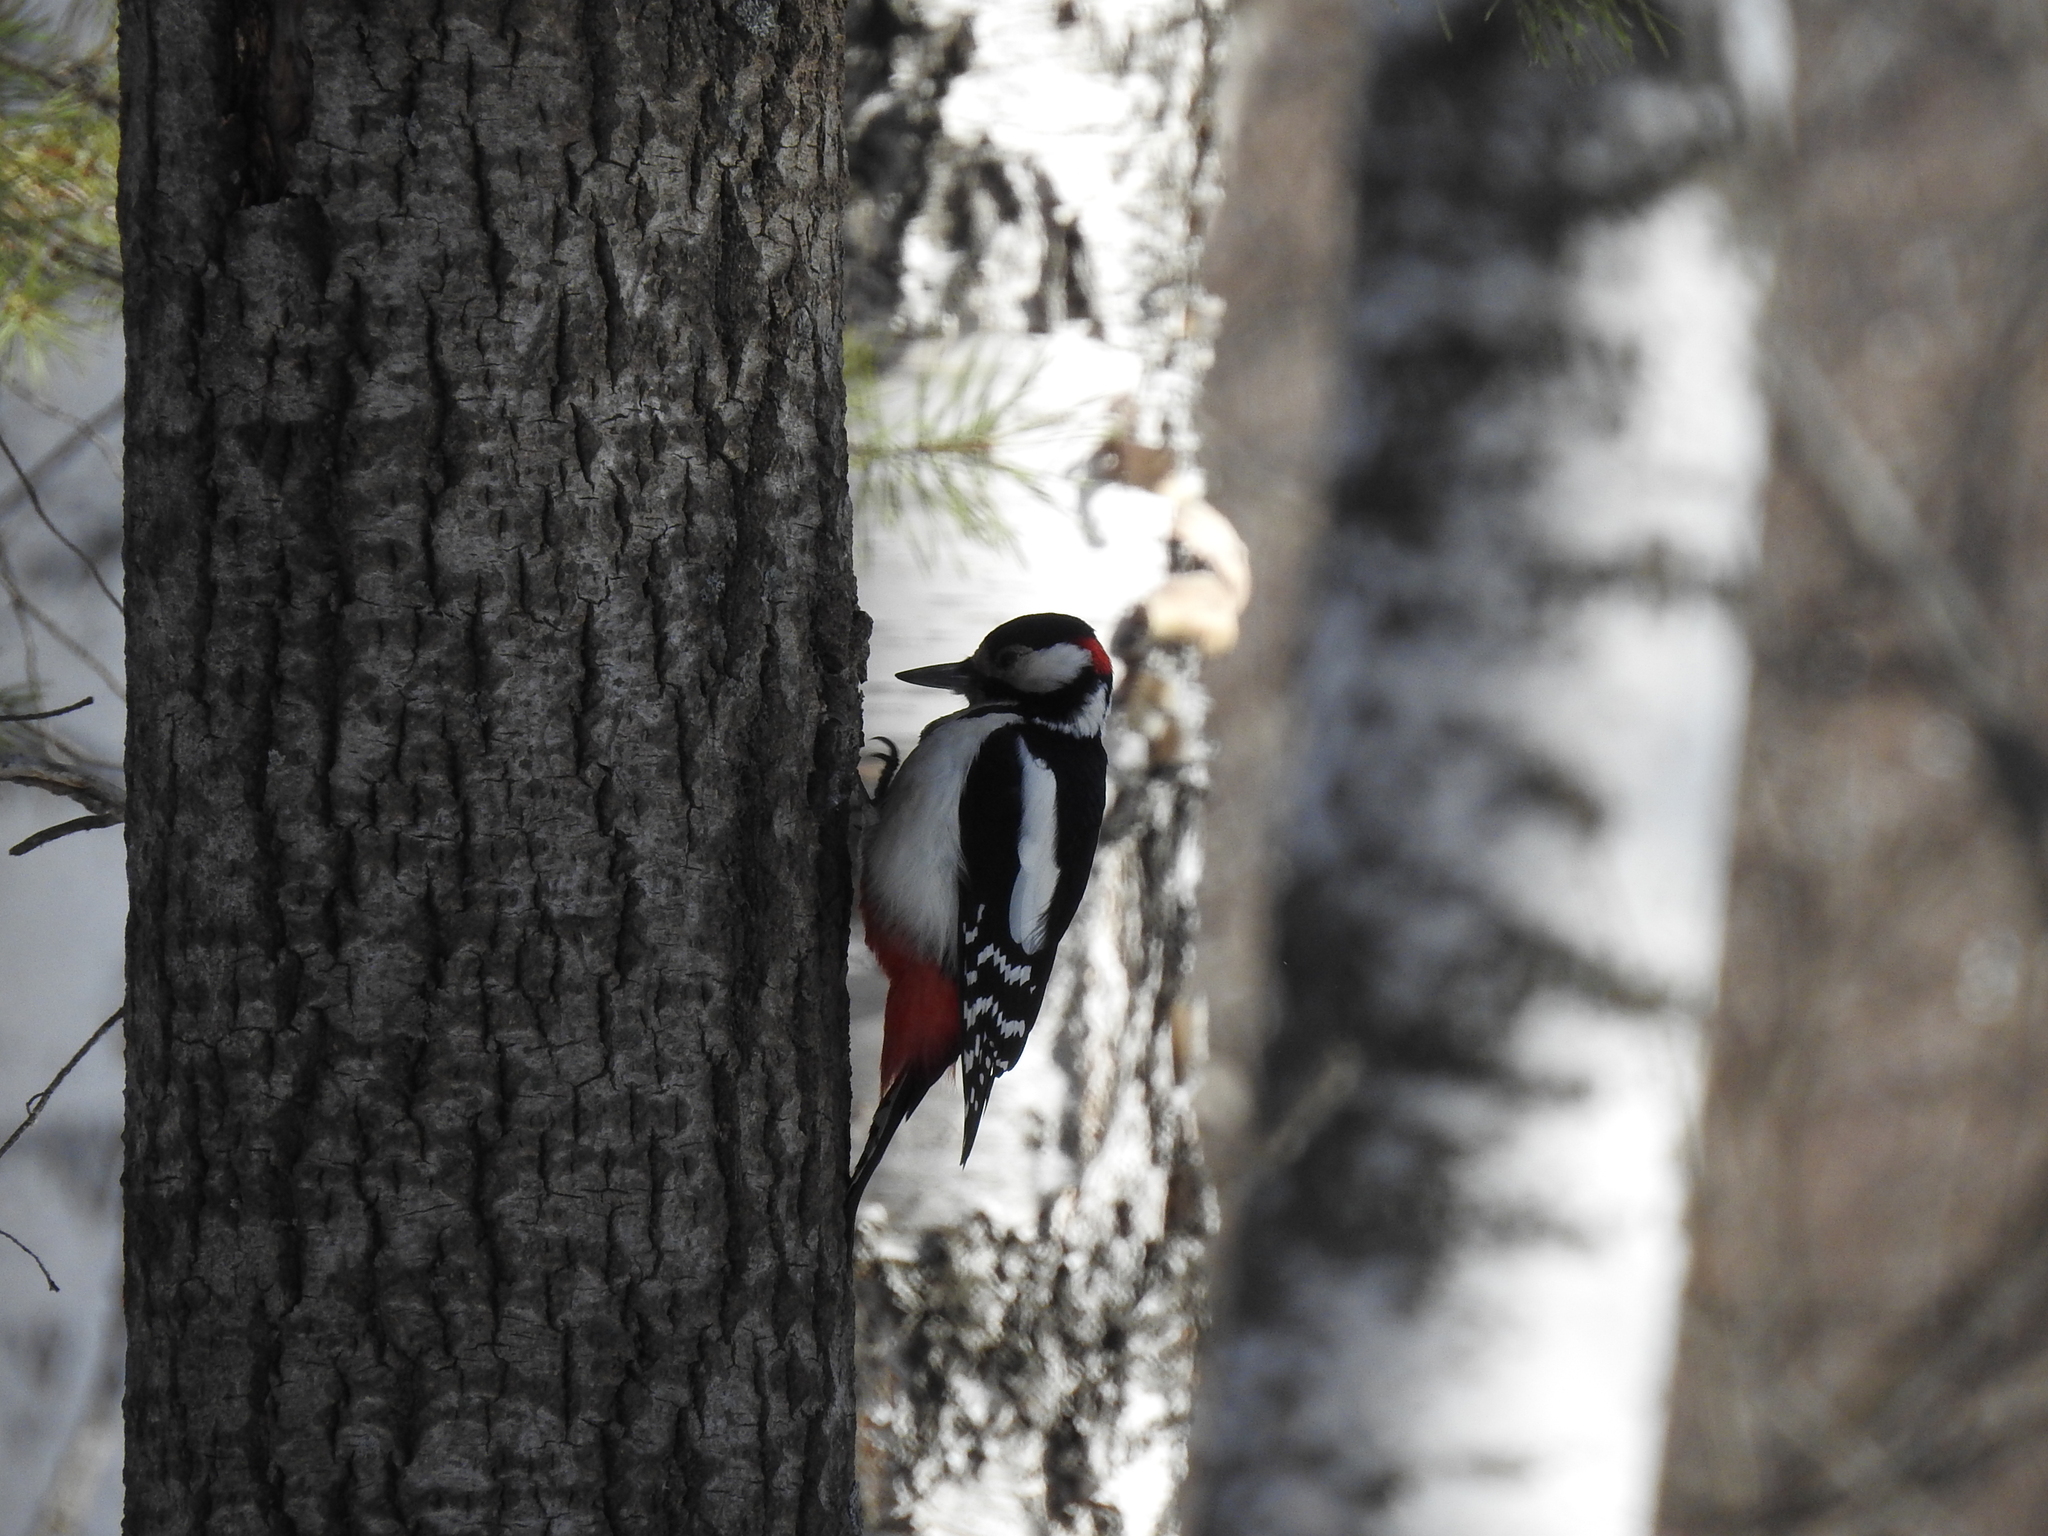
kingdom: Animalia
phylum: Chordata
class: Aves
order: Piciformes
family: Picidae
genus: Dendrocopos
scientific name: Dendrocopos major
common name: Great spotted woodpecker
